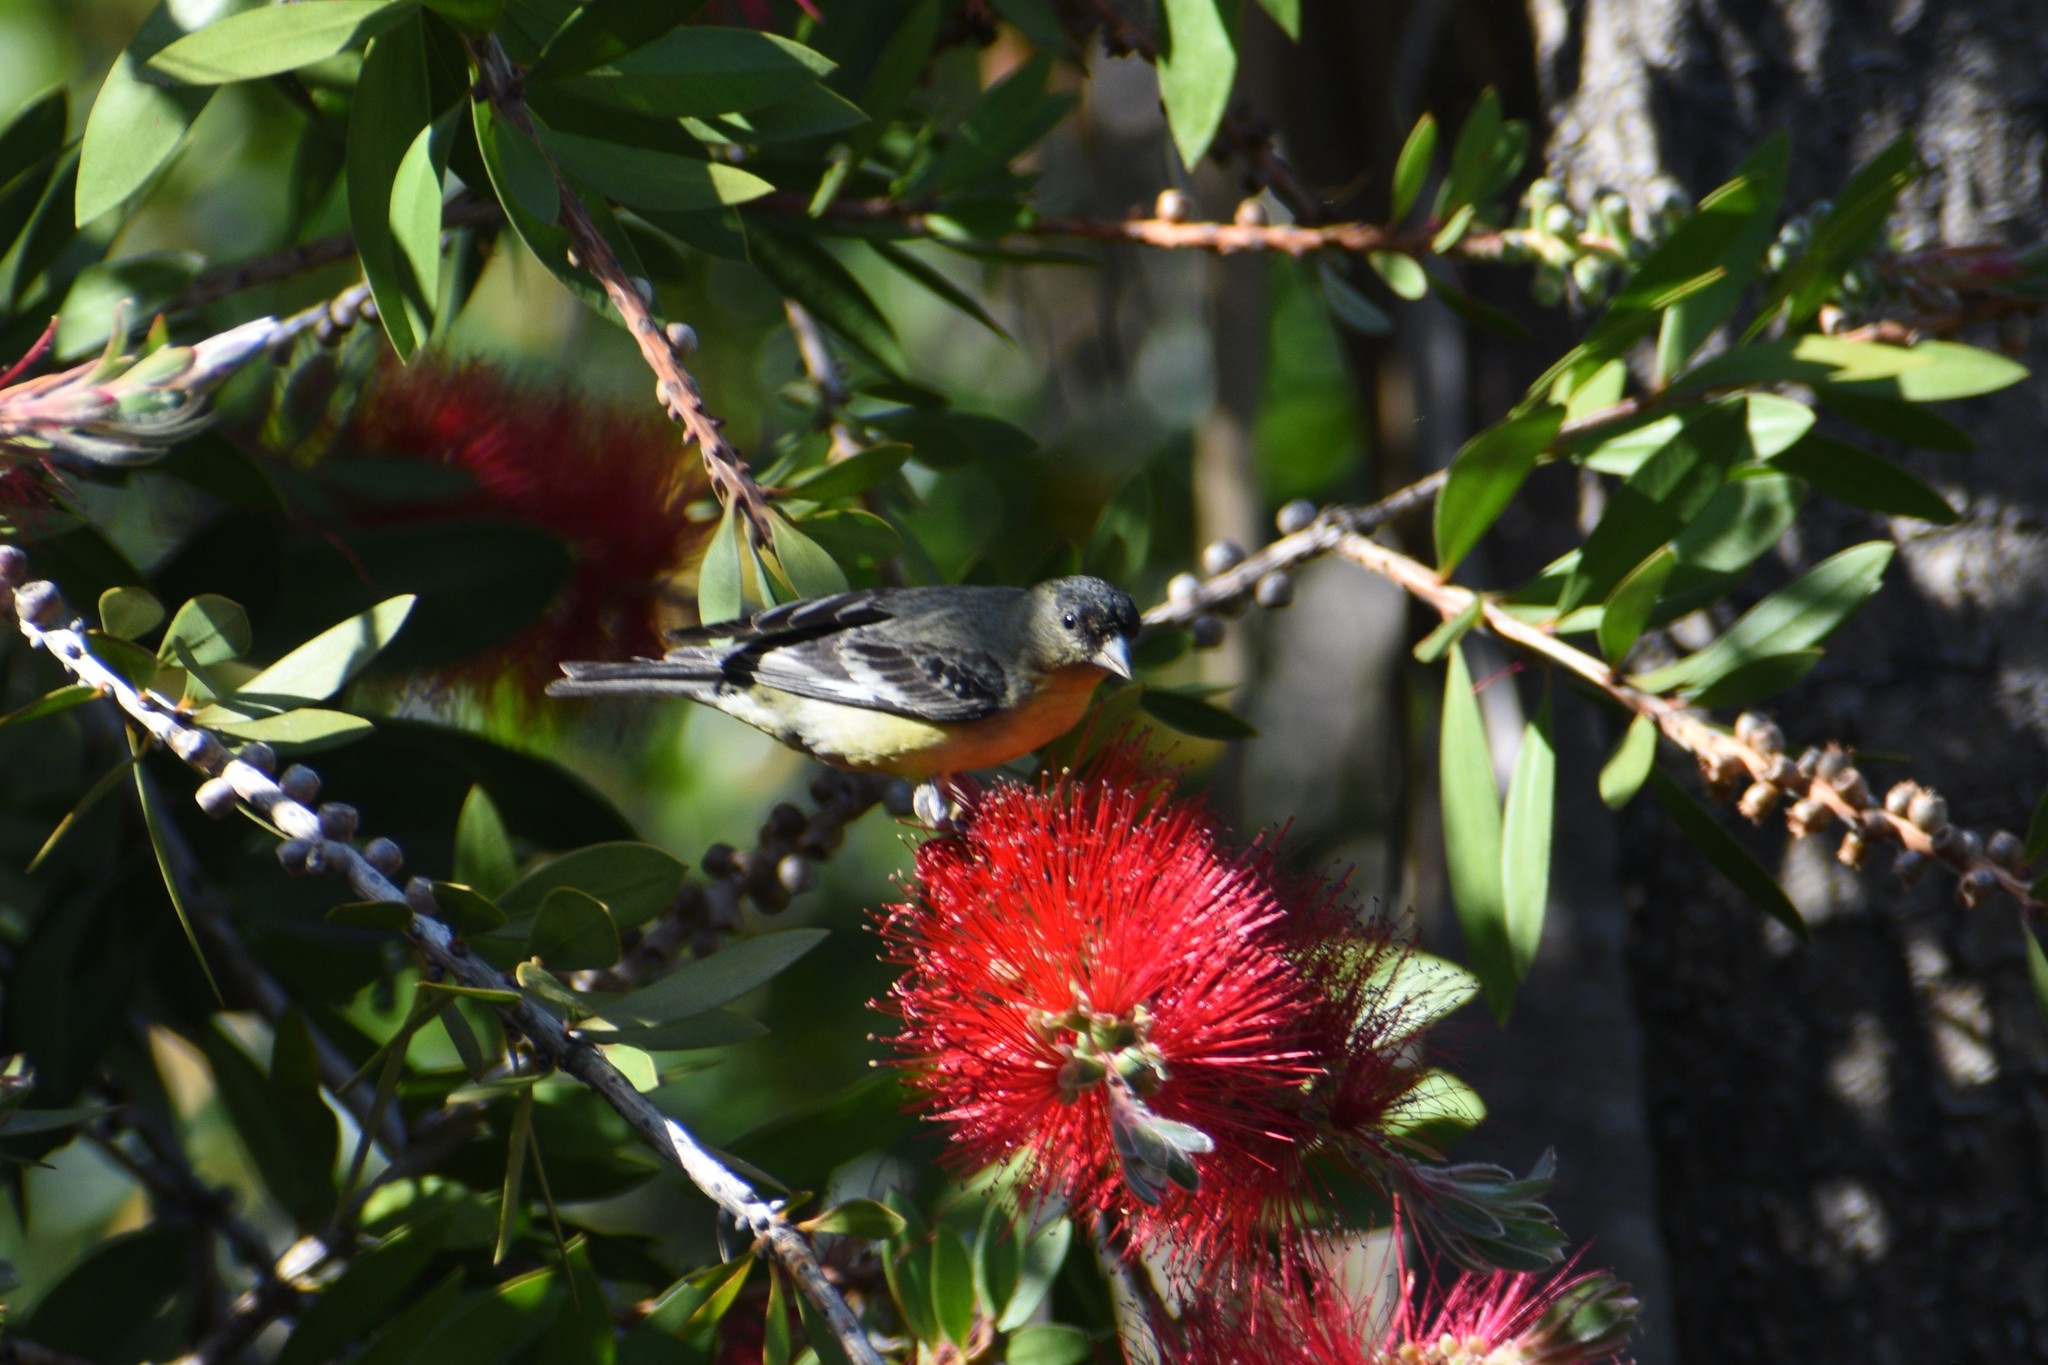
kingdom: Animalia
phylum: Chordata
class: Aves
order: Passeriformes
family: Fringillidae
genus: Spinus
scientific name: Spinus psaltria
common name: Lesser goldfinch
